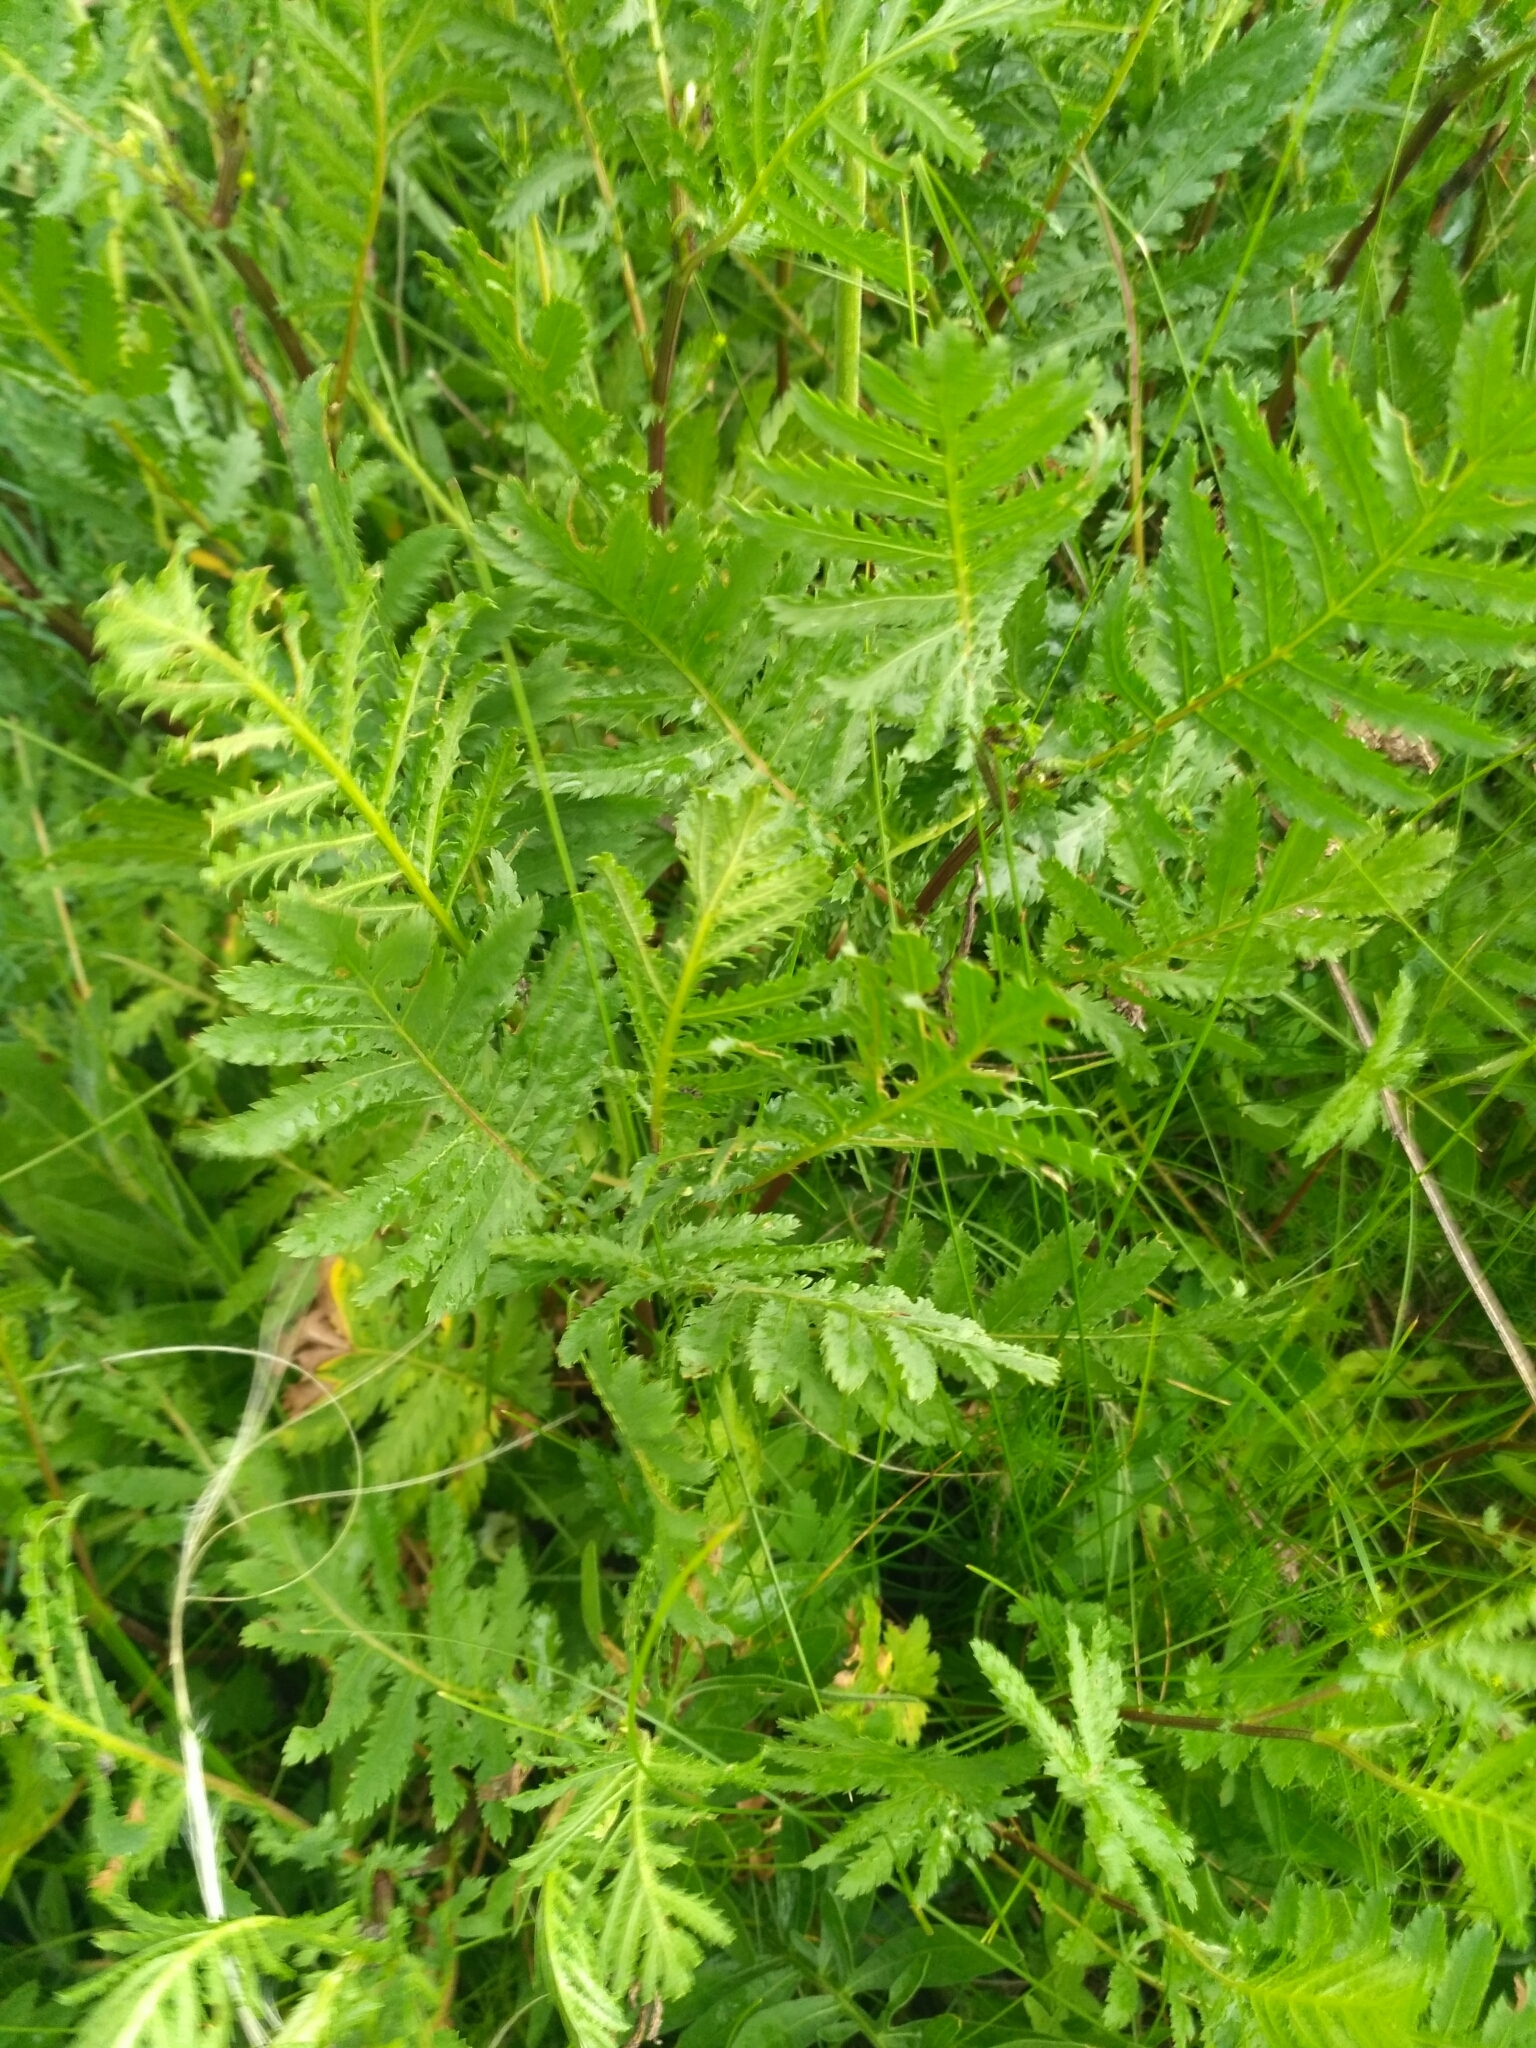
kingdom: Plantae
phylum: Tracheophyta
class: Magnoliopsida
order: Asterales
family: Asteraceae
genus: Tanacetum
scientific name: Tanacetum vulgare
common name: Common tansy
